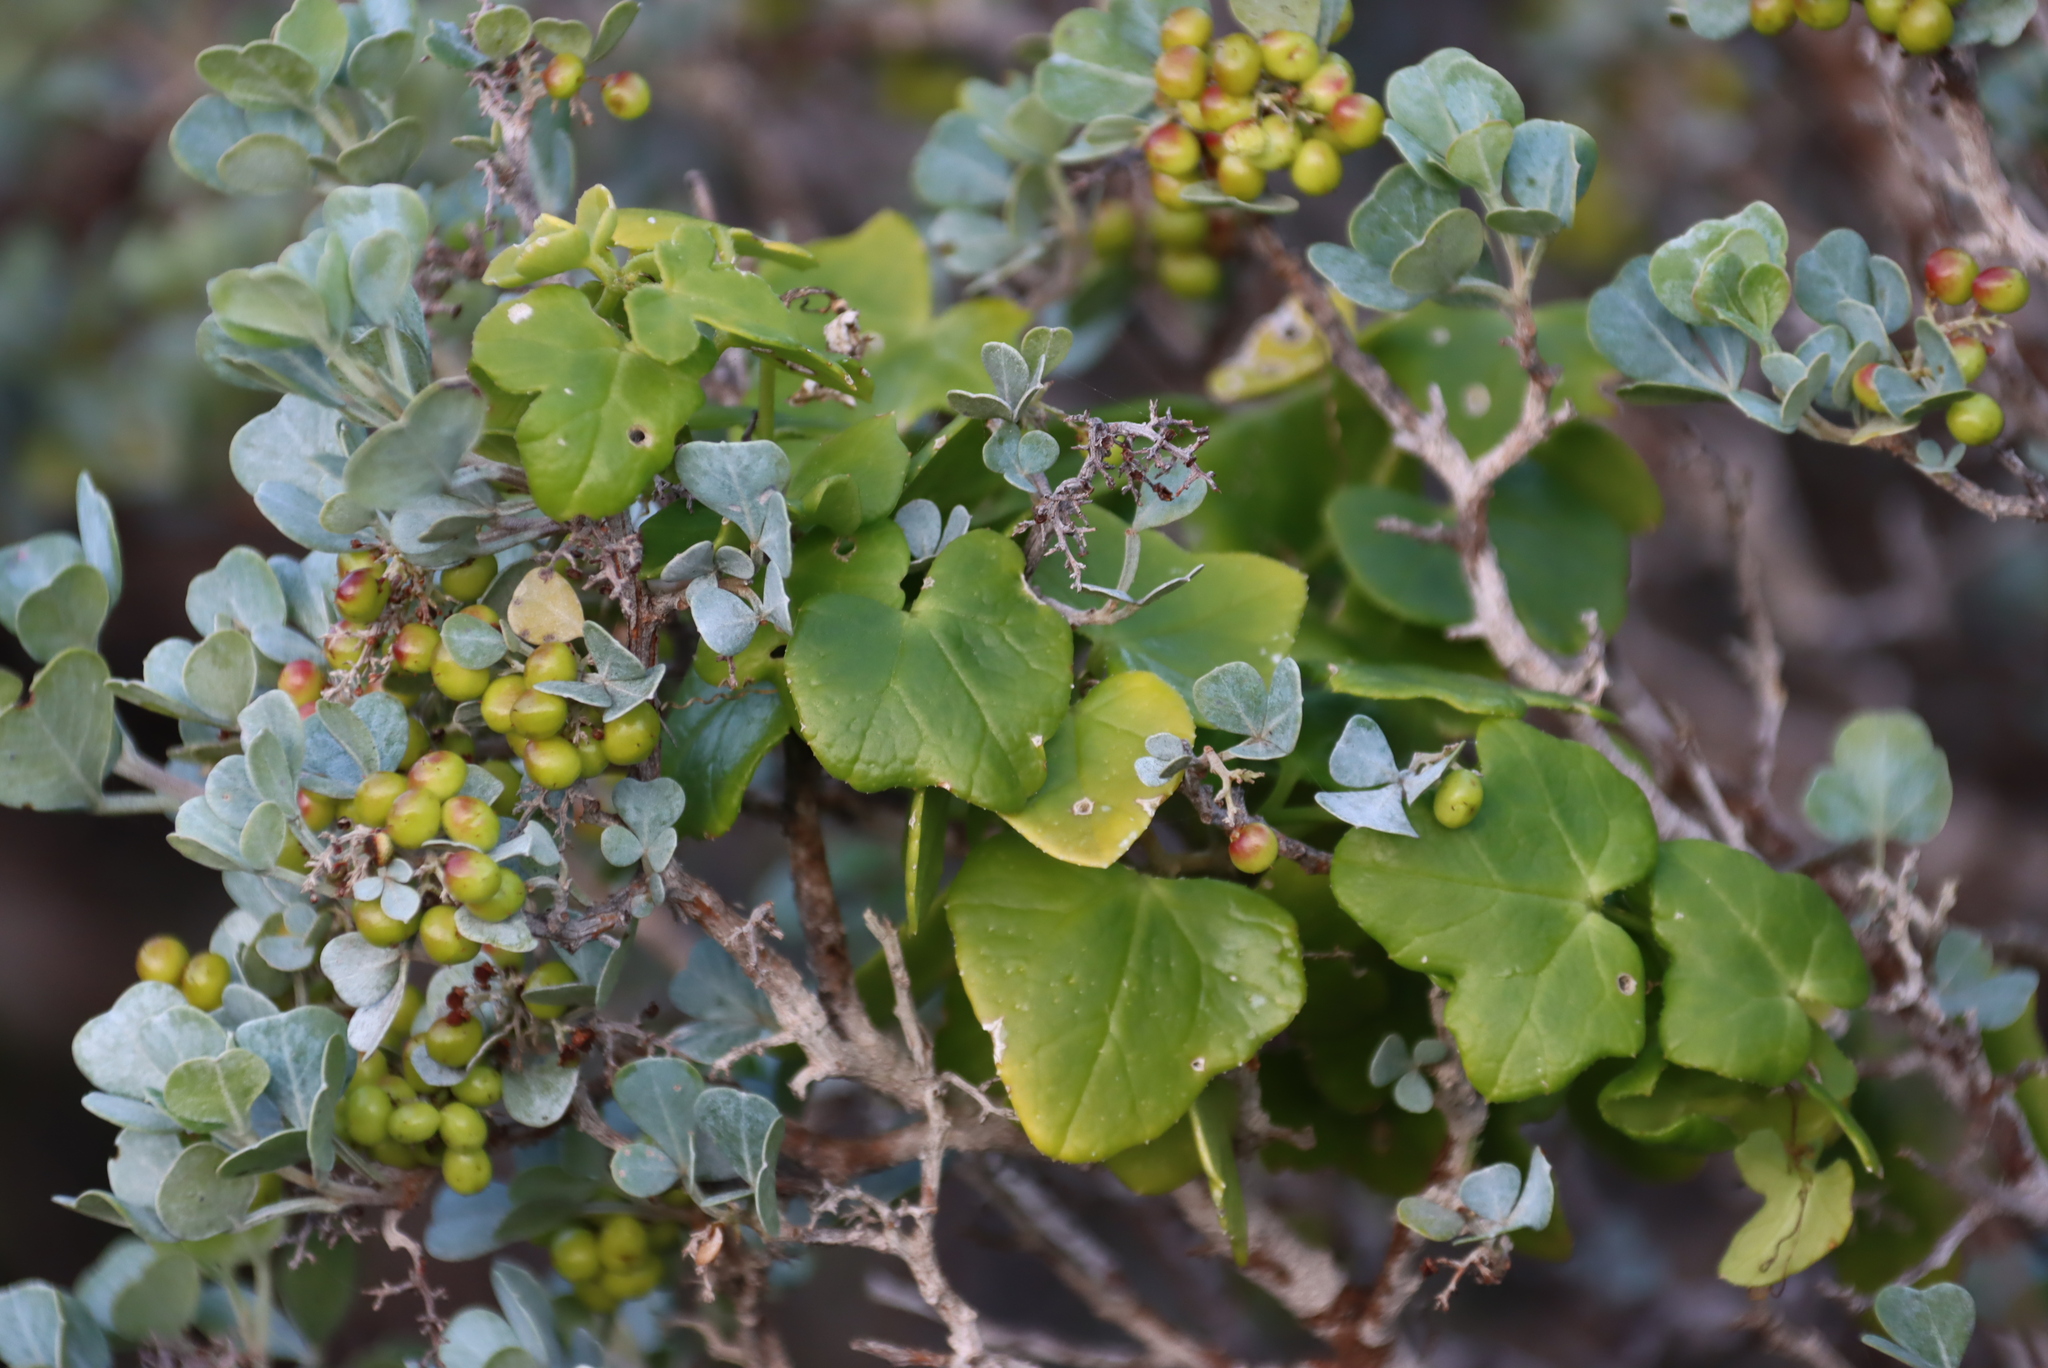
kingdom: Plantae
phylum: Tracheophyta
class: Magnoliopsida
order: Cucurbitales
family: Cucurbitaceae
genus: Kedrostis
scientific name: Kedrostis nana
